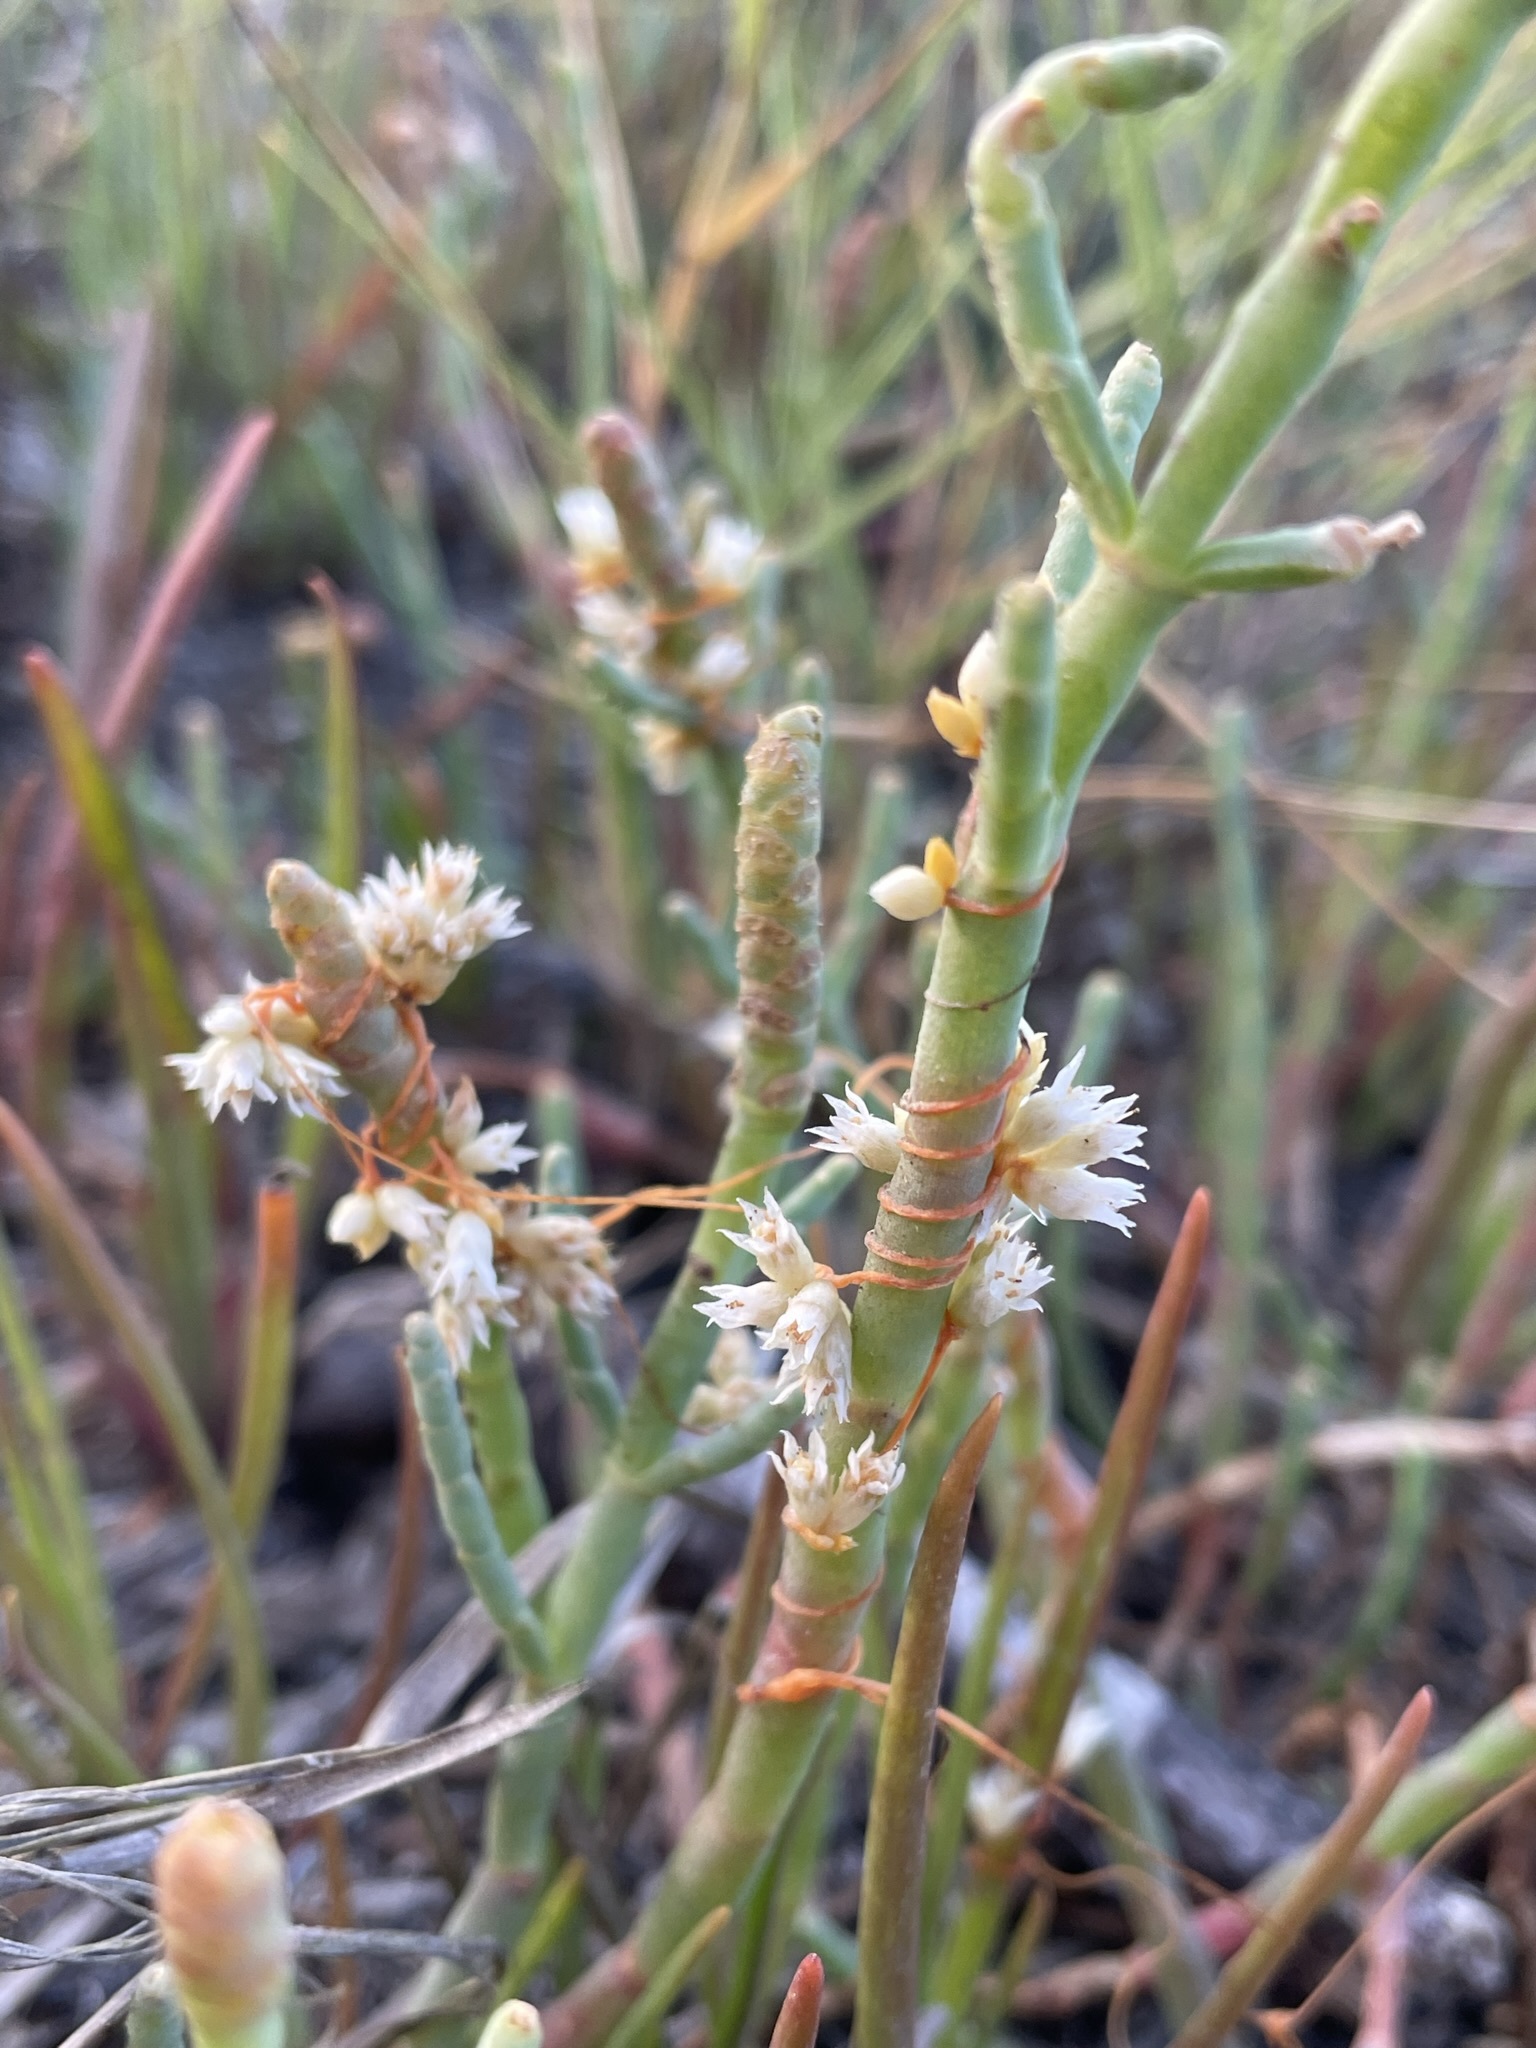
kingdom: Plantae
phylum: Tracheophyta
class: Magnoliopsida
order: Solanales
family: Convolvulaceae
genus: Cuscuta
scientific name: Cuscuta pacifica
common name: Large saltmarsh dodder
